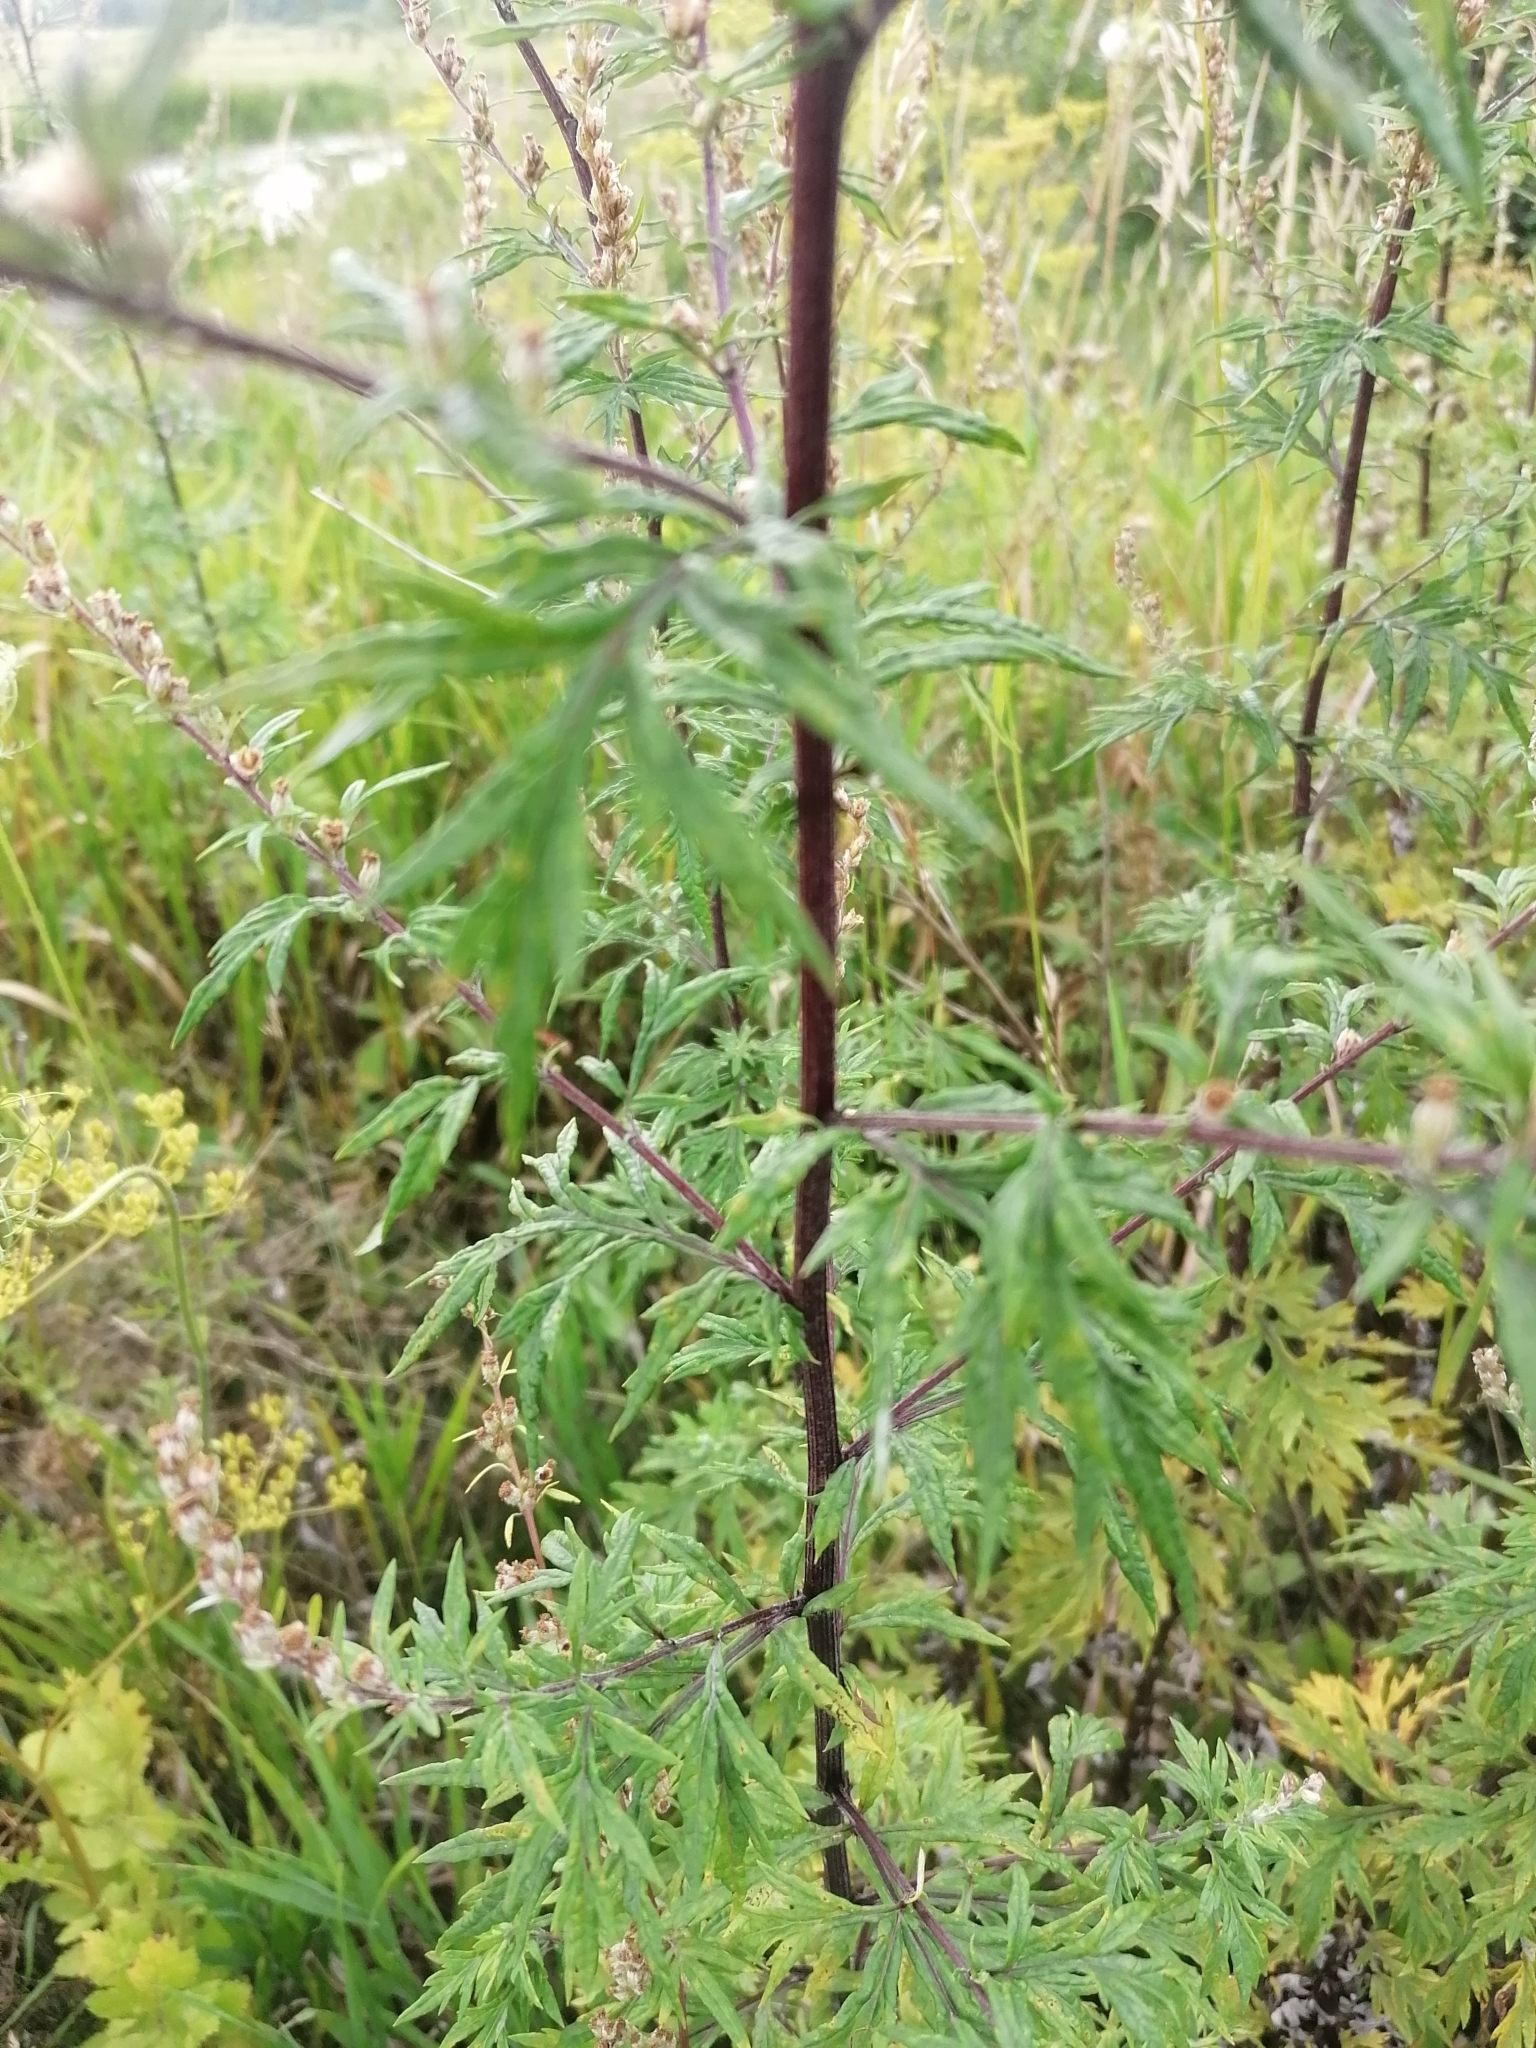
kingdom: Plantae
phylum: Tracheophyta
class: Magnoliopsida
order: Asterales
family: Asteraceae
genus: Artemisia
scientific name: Artemisia vulgaris
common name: Mugwort
